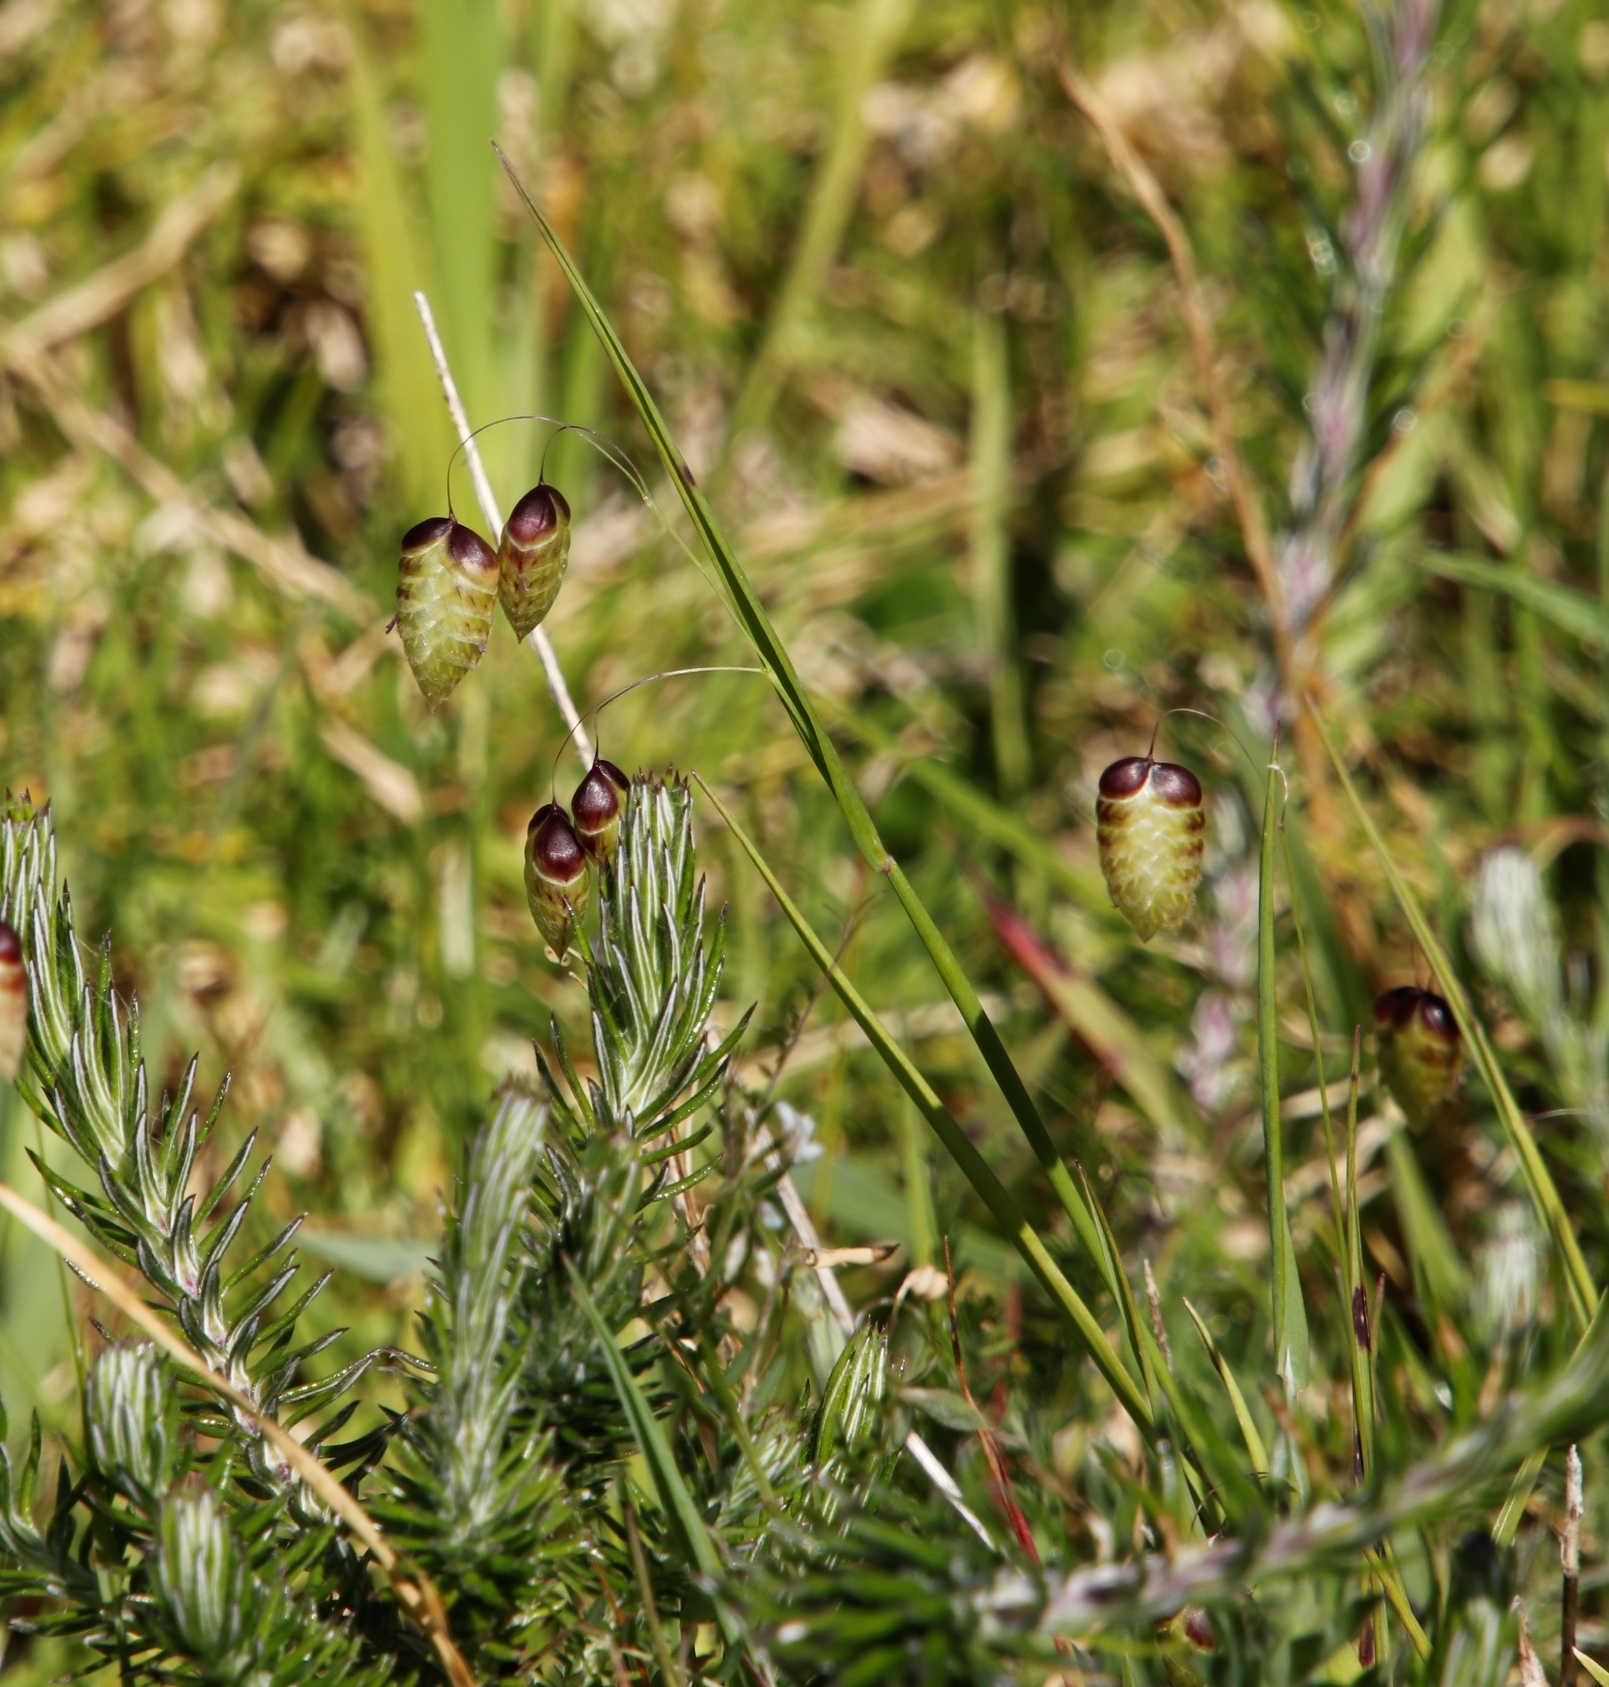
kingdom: Plantae
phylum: Tracheophyta
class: Liliopsida
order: Poales
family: Poaceae
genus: Briza
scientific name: Briza maxima
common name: Big quakinggrass
